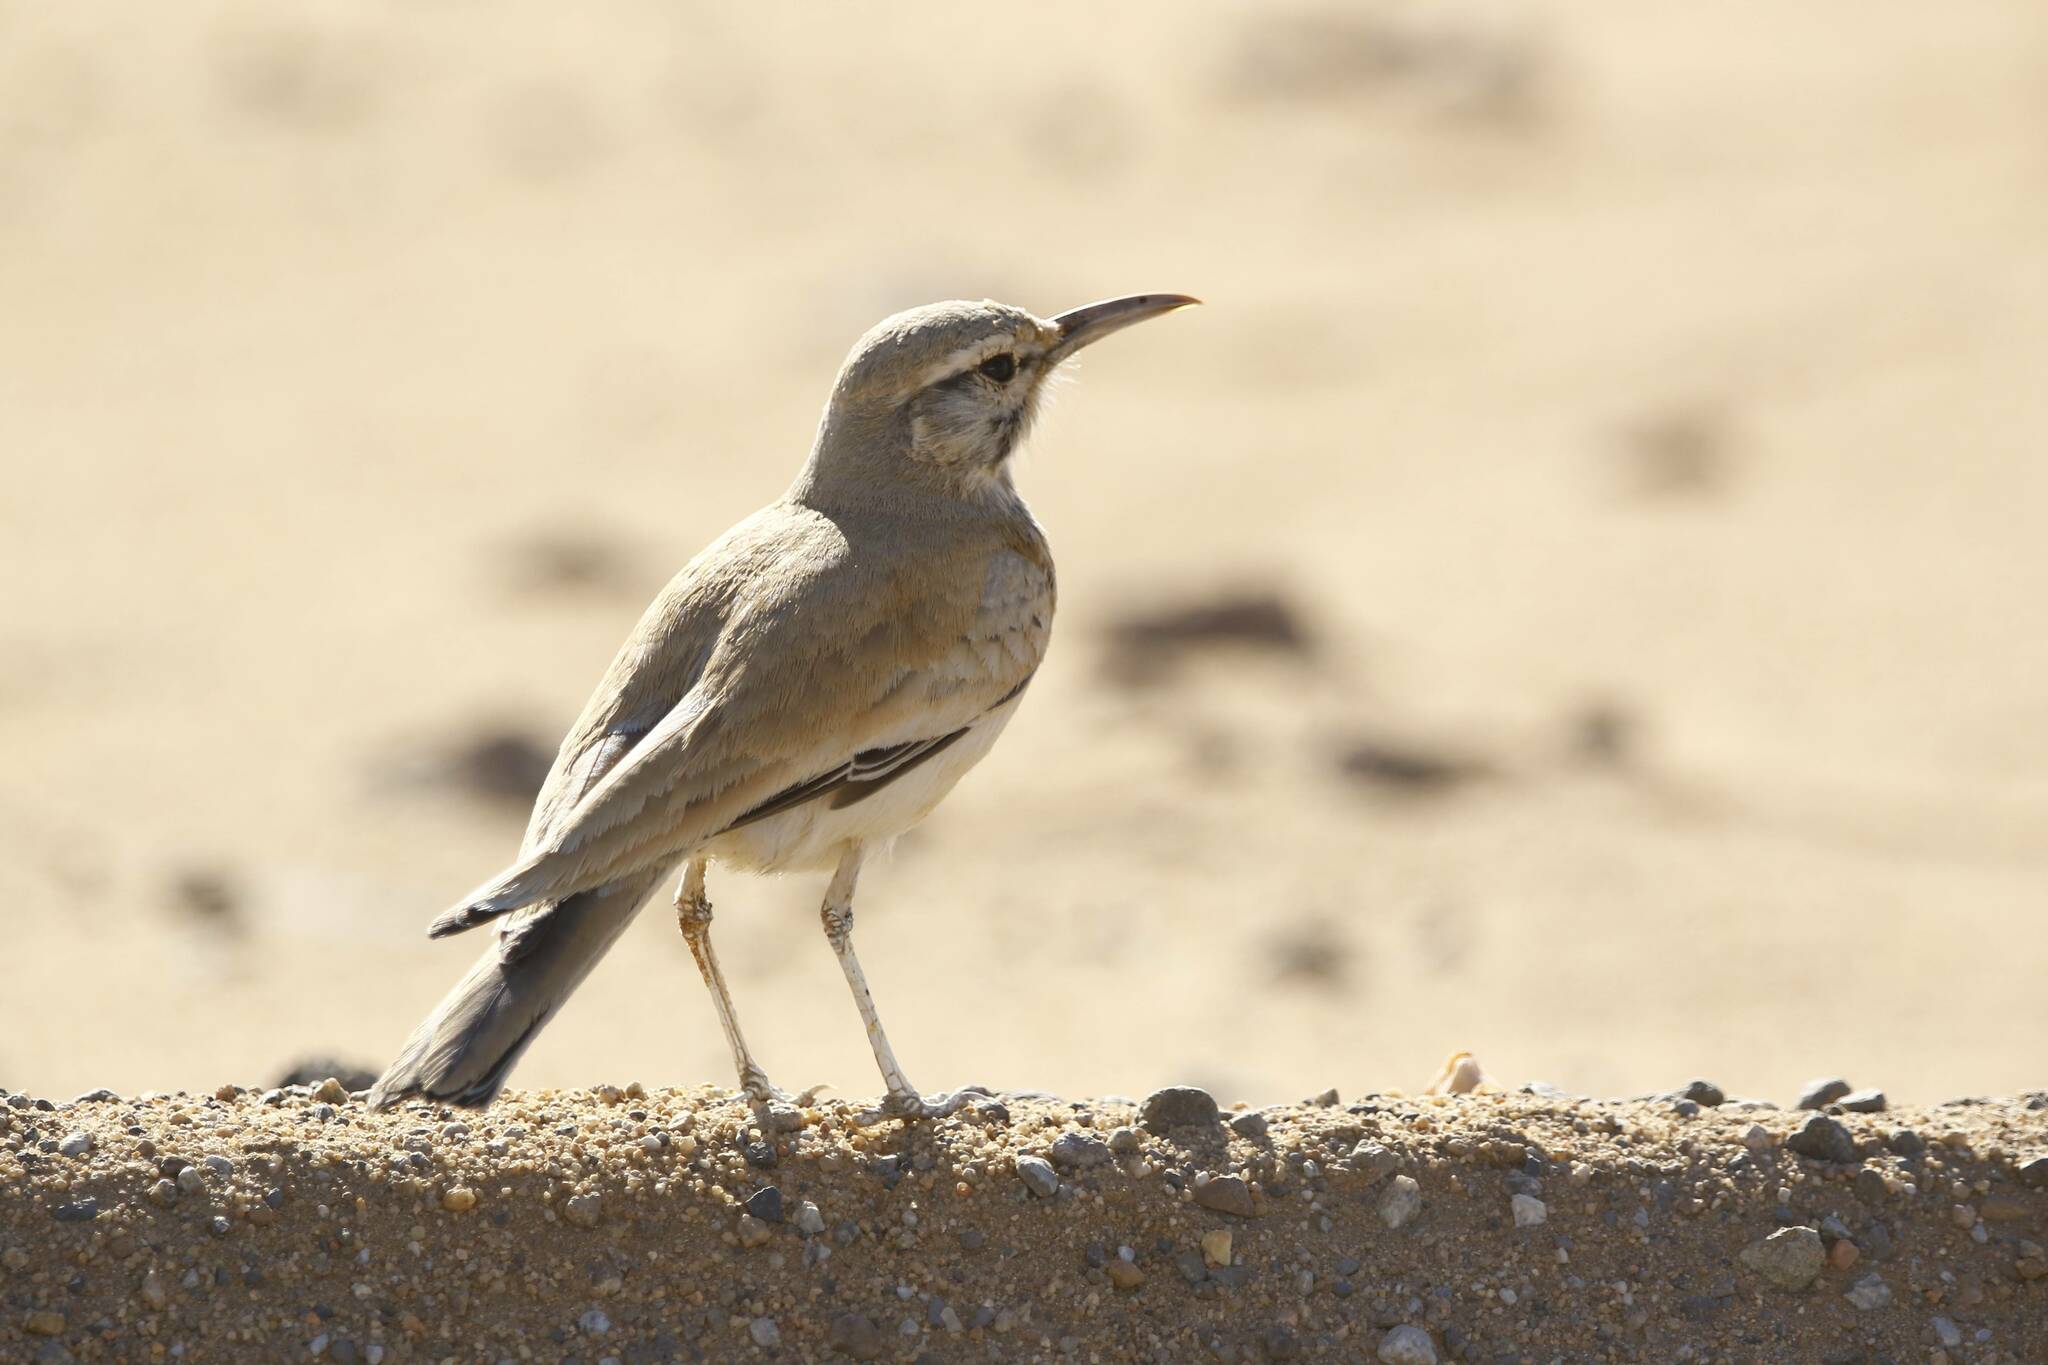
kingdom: Animalia
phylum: Chordata
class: Aves
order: Passeriformes
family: Alaudidae
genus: Alaemon
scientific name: Alaemon alaudipes
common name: Greater hoopoe-lark
